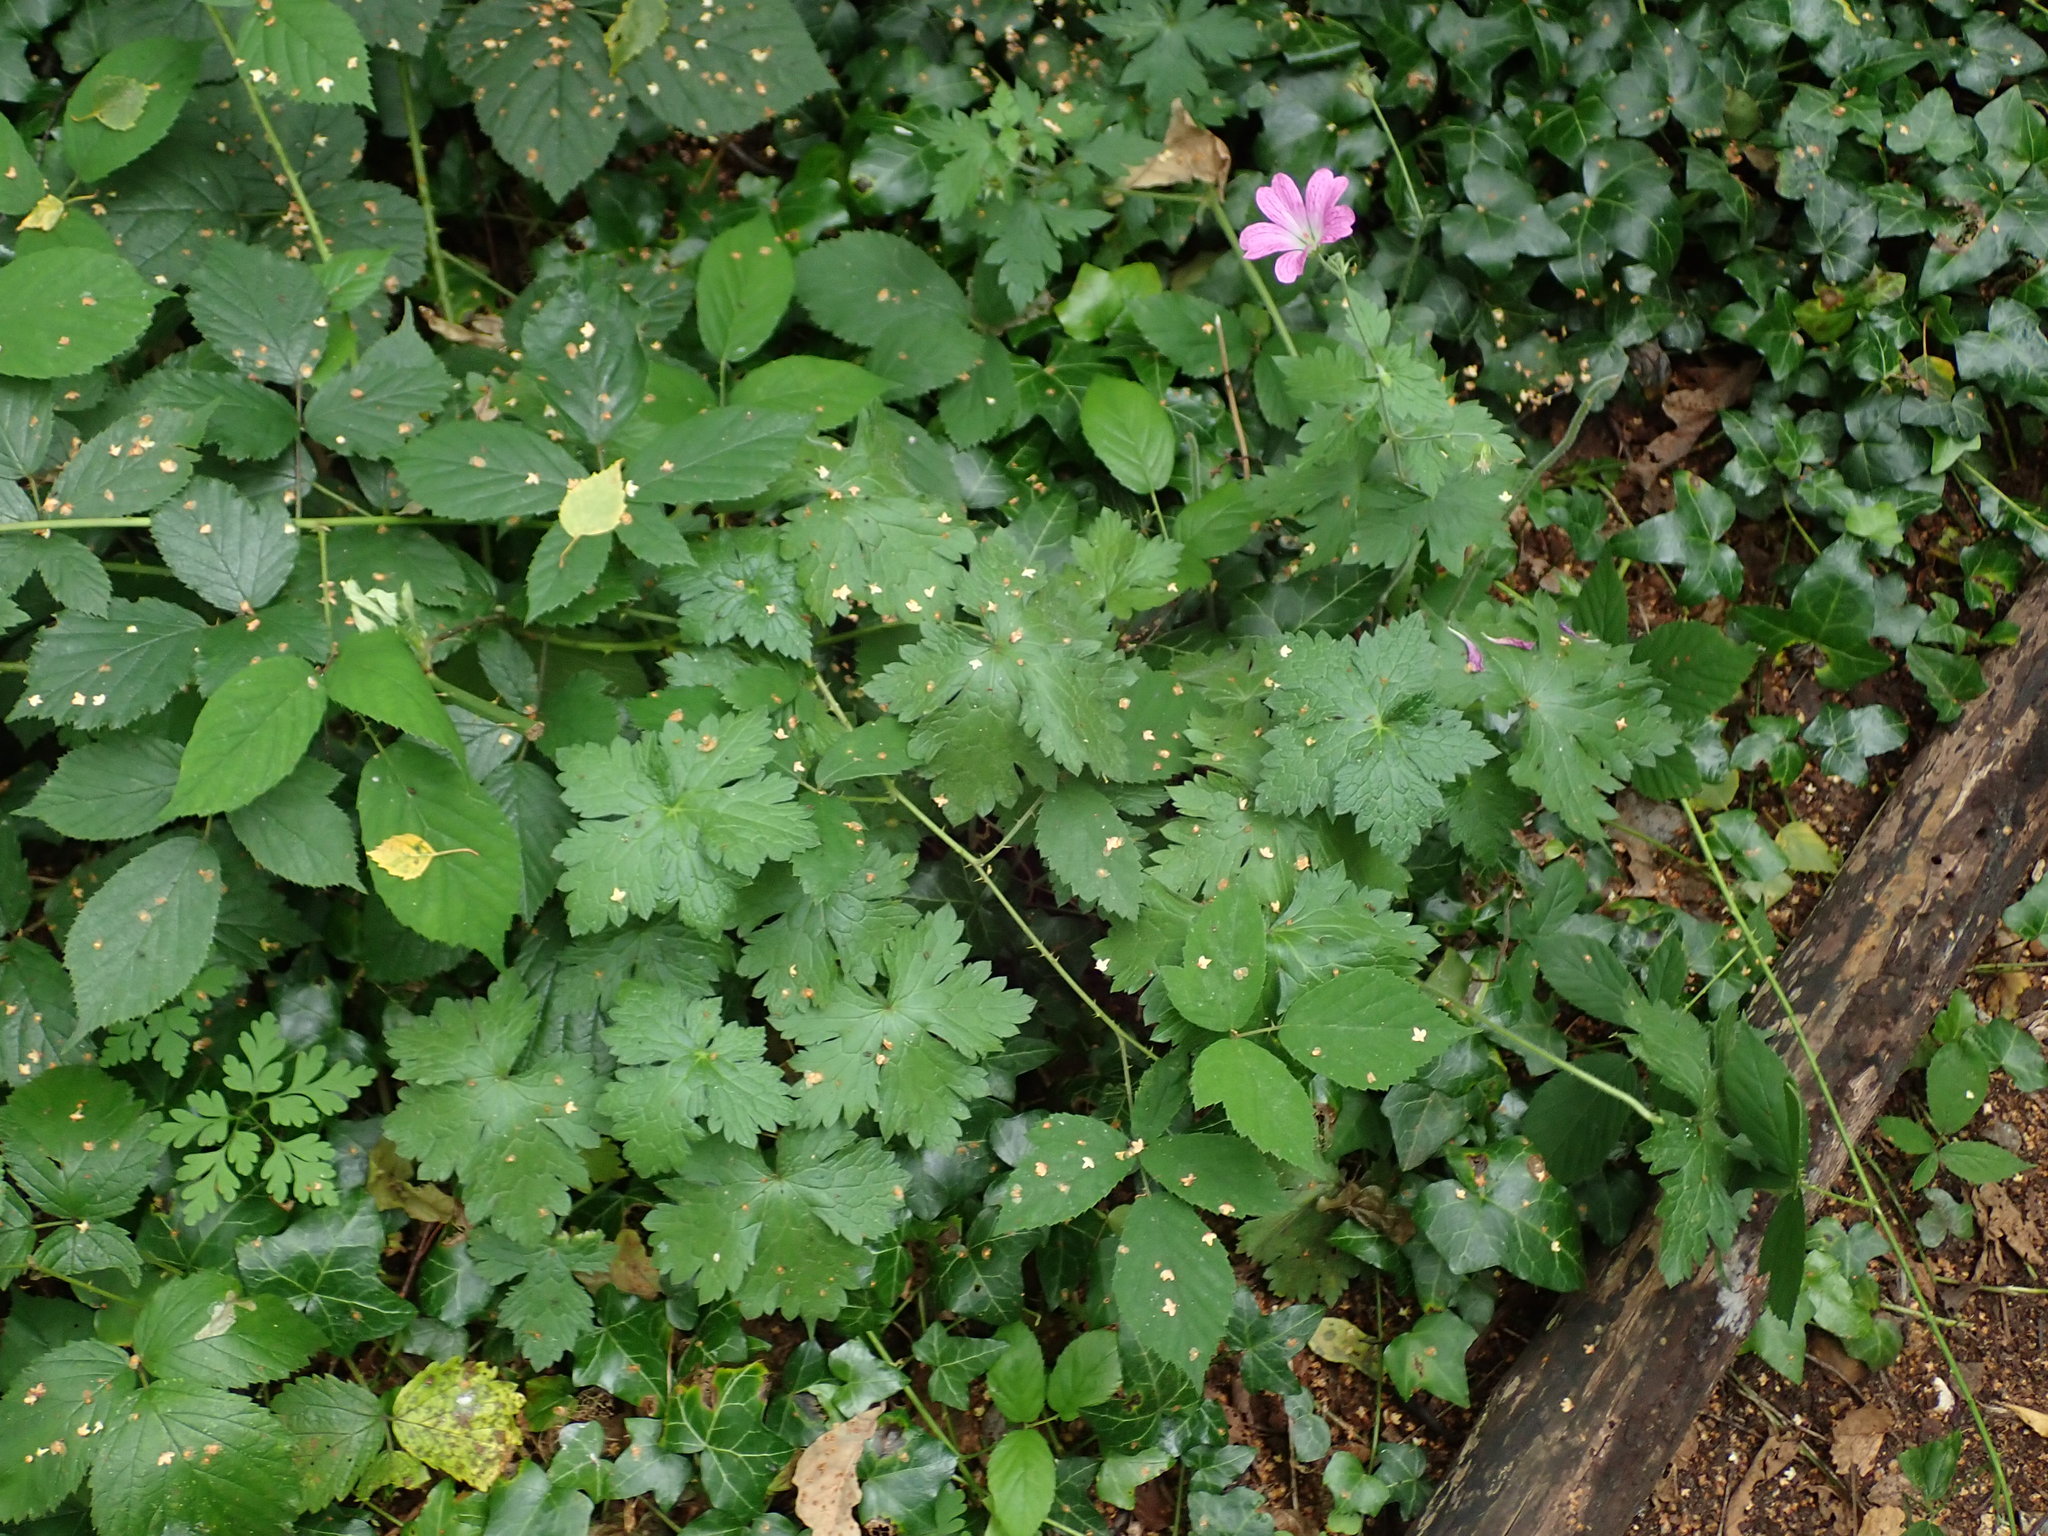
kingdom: Plantae
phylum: Tracheophyta
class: Magnoliopsida
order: Geraniales
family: Geraniaceae
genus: Geranium
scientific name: Geranium oxonianum
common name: Druce's crane's-bill
